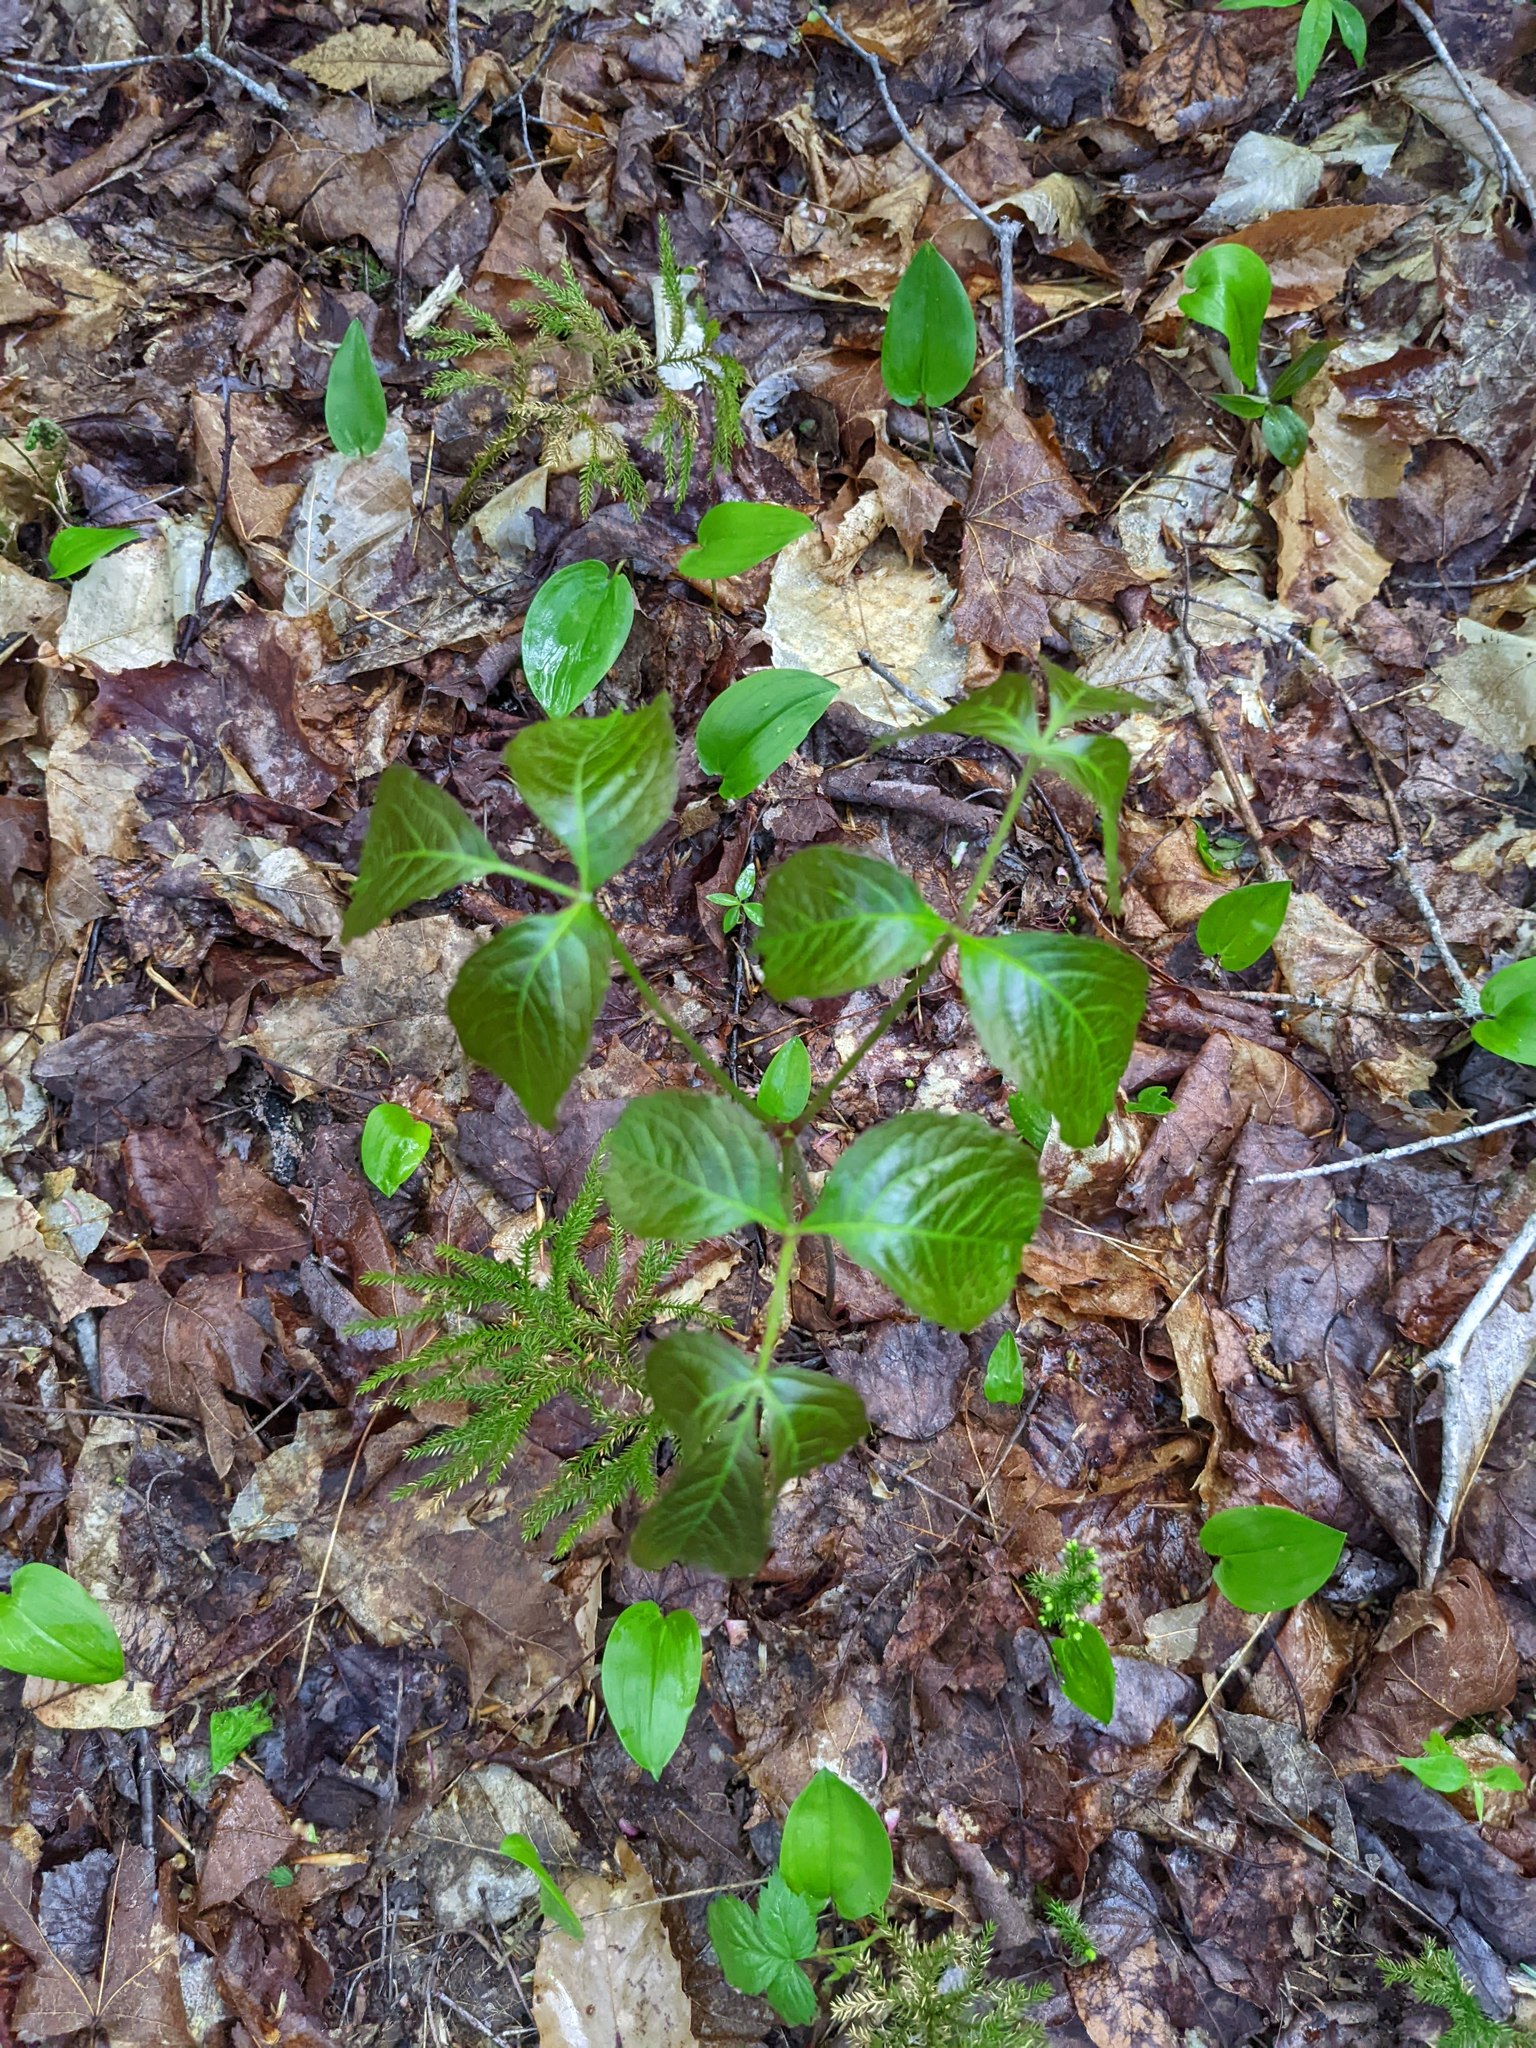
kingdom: Plantae
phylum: Tracheophyta
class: Magnoliopsida
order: Apiales
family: Araliaceae
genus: Aralia
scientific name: Aralia nudicaulis
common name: Wild sarsaparilla
